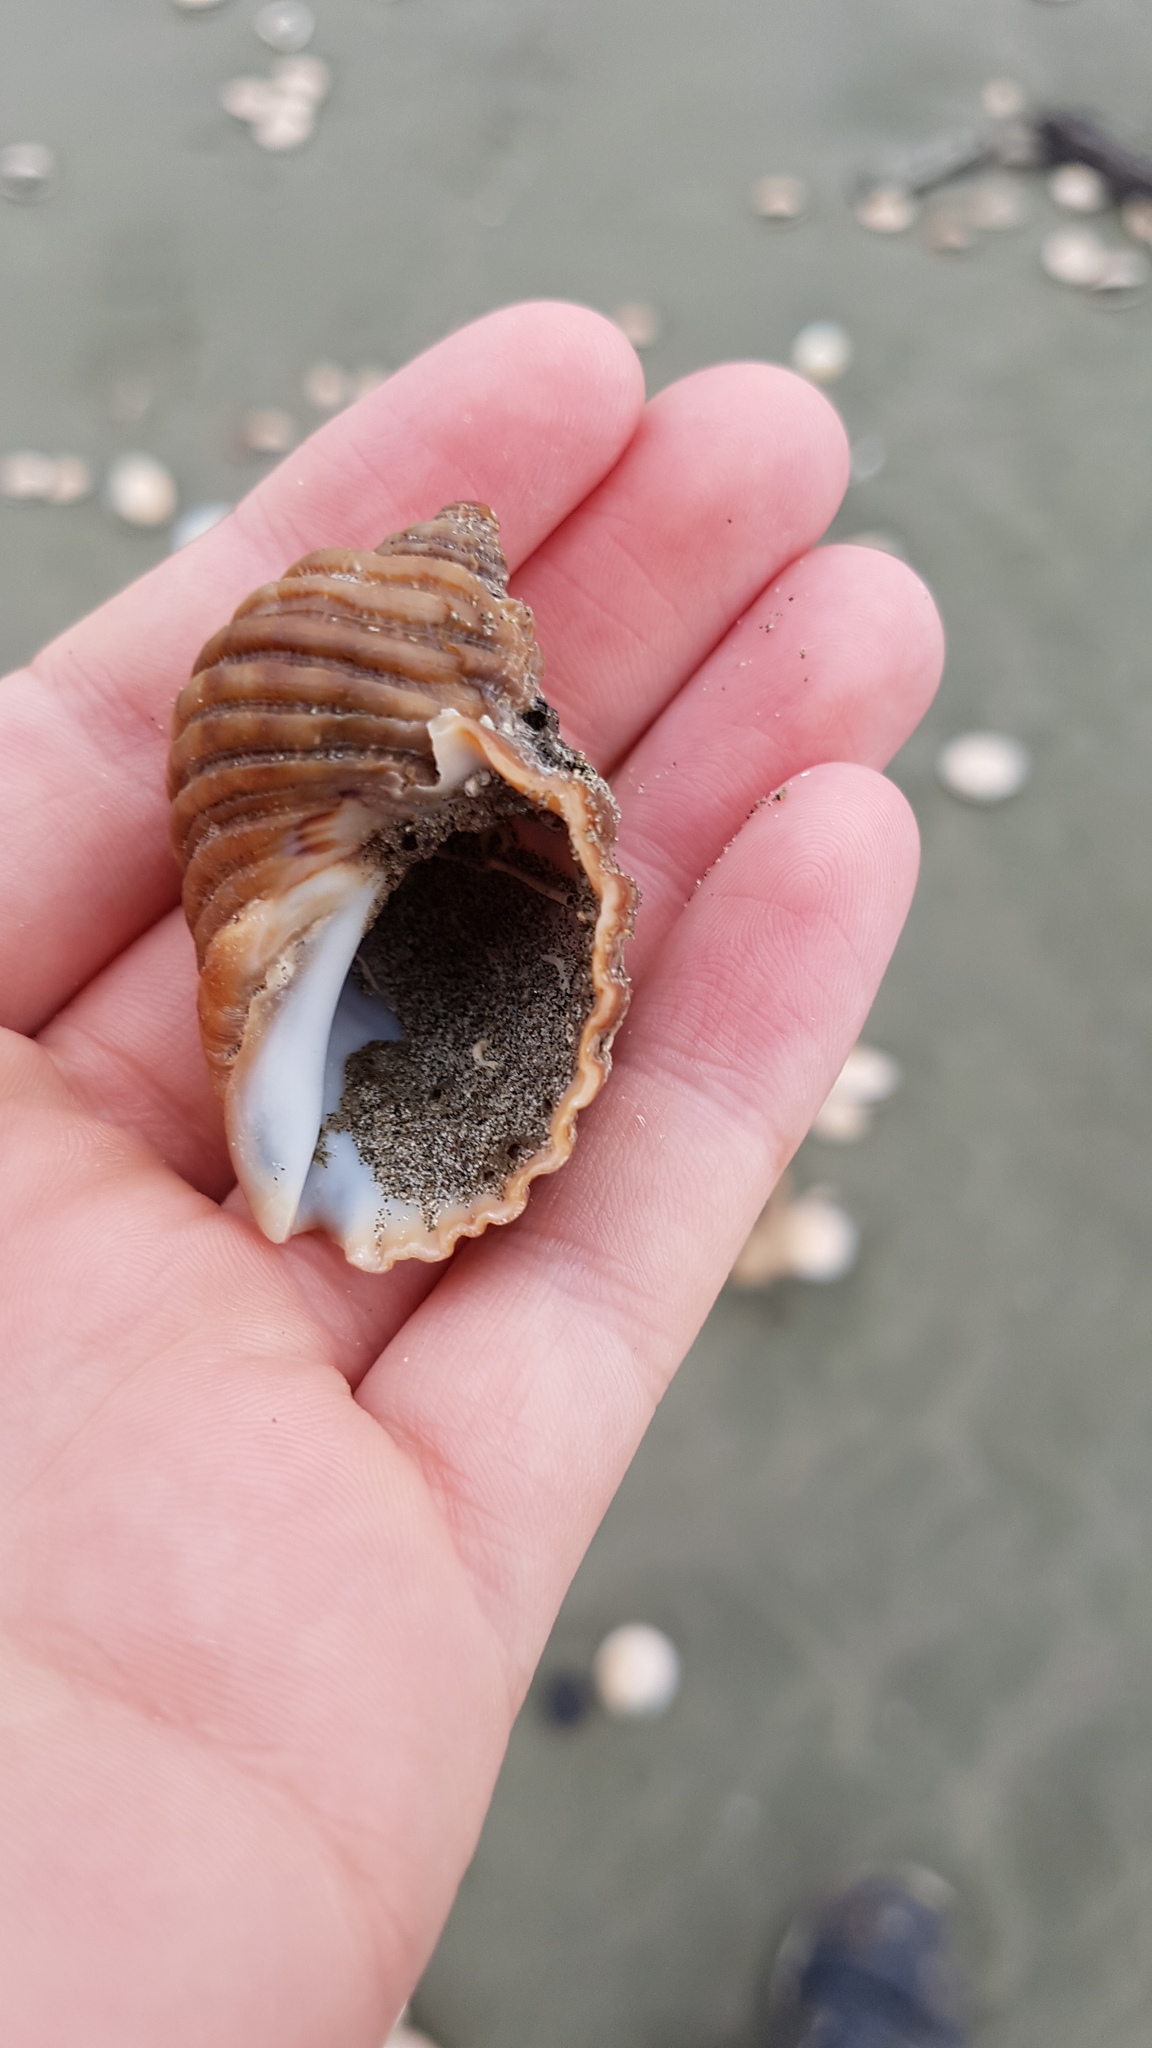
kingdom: Animalia
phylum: Mollusca
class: Gastropoda
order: Neogastropoda
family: Muricidae
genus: Dicathais
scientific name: Dicathais orbita
